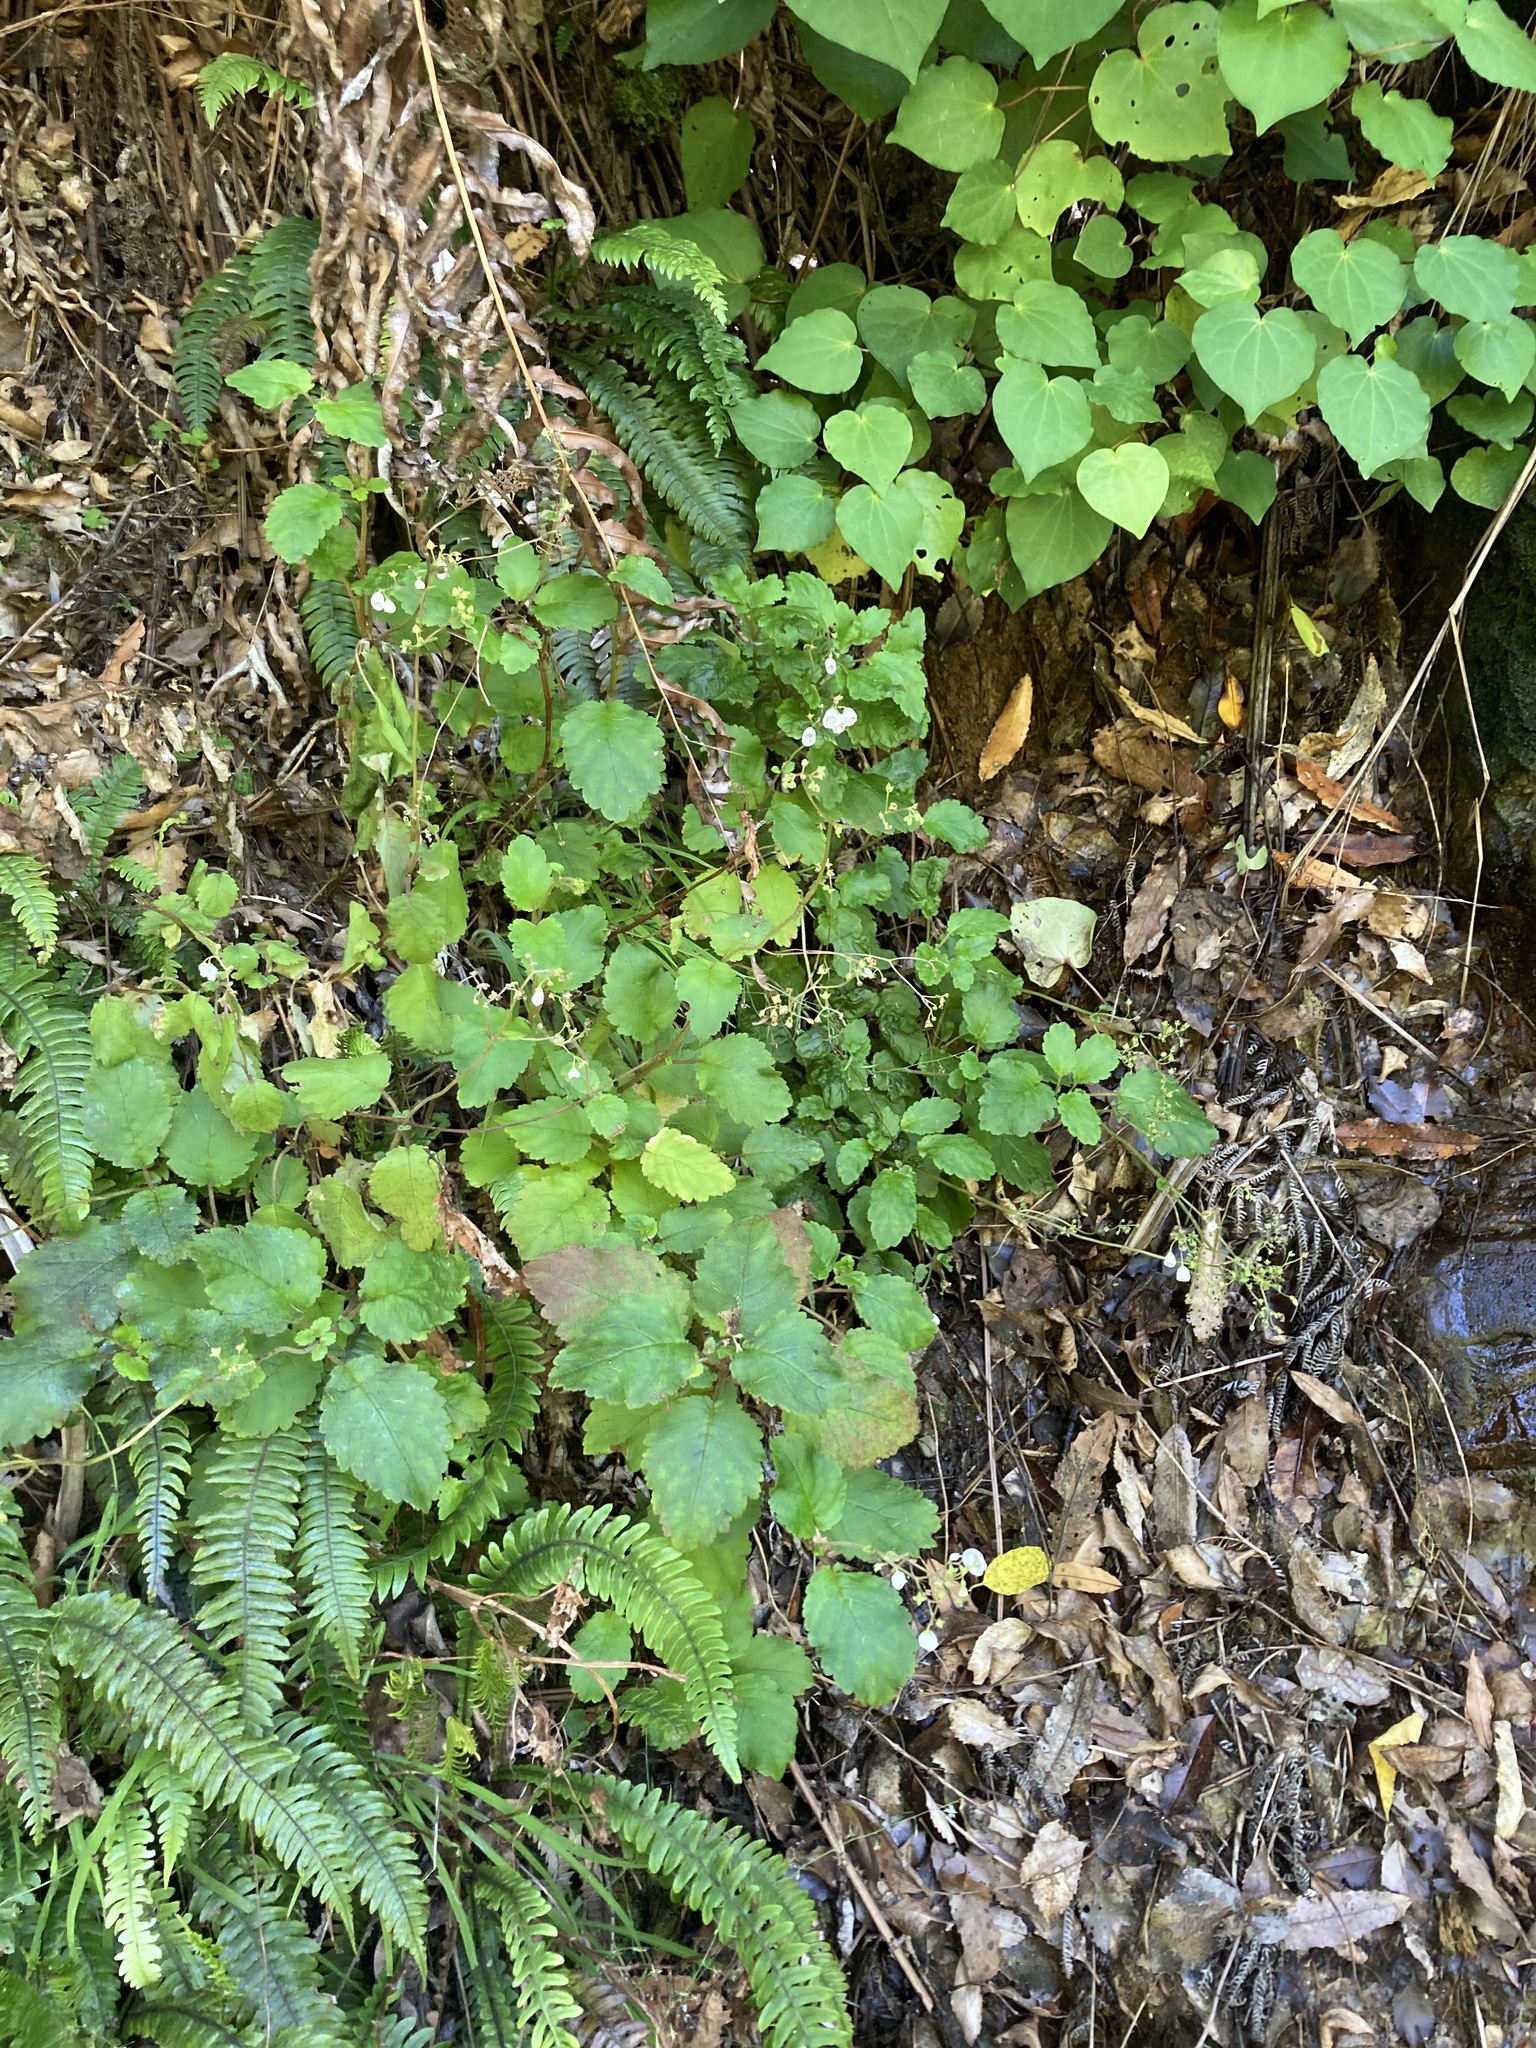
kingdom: Plantae
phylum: Tracheophyta
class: Magnoliopsida
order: Lamiales
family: Calceolariaceae
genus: Jovellana
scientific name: Jovellana sinclairii
